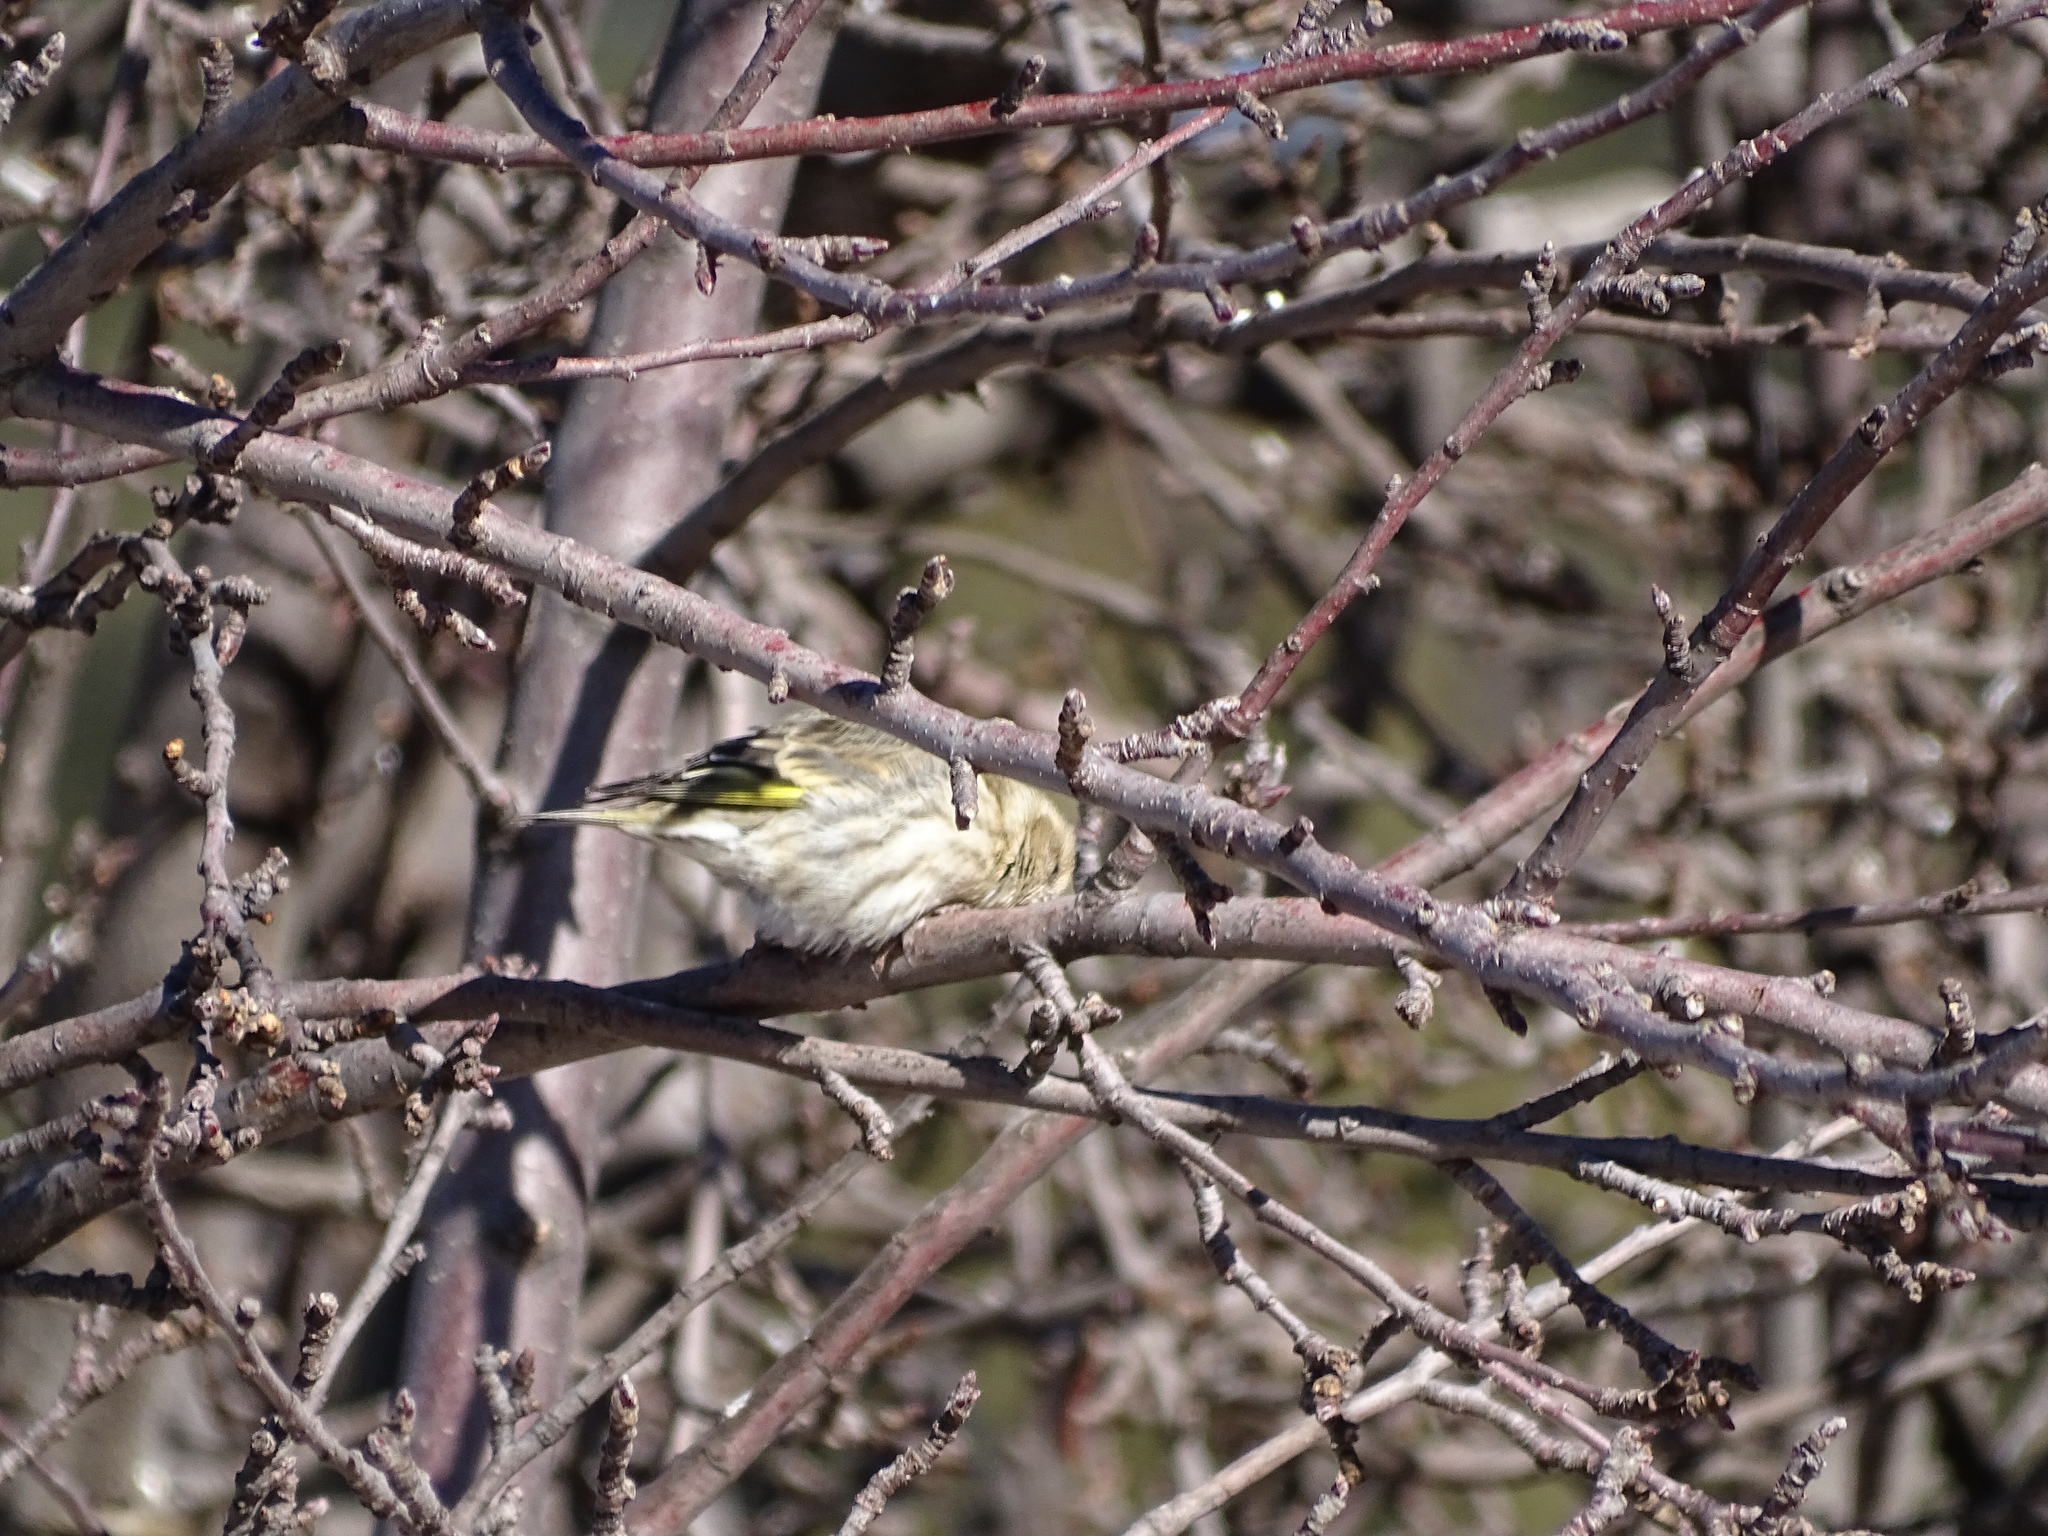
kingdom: Animalia
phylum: Chordata
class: Aves
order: Passeriformes
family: Fringillidae
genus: Spinus
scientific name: Spinus pinus
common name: Pine siskin
